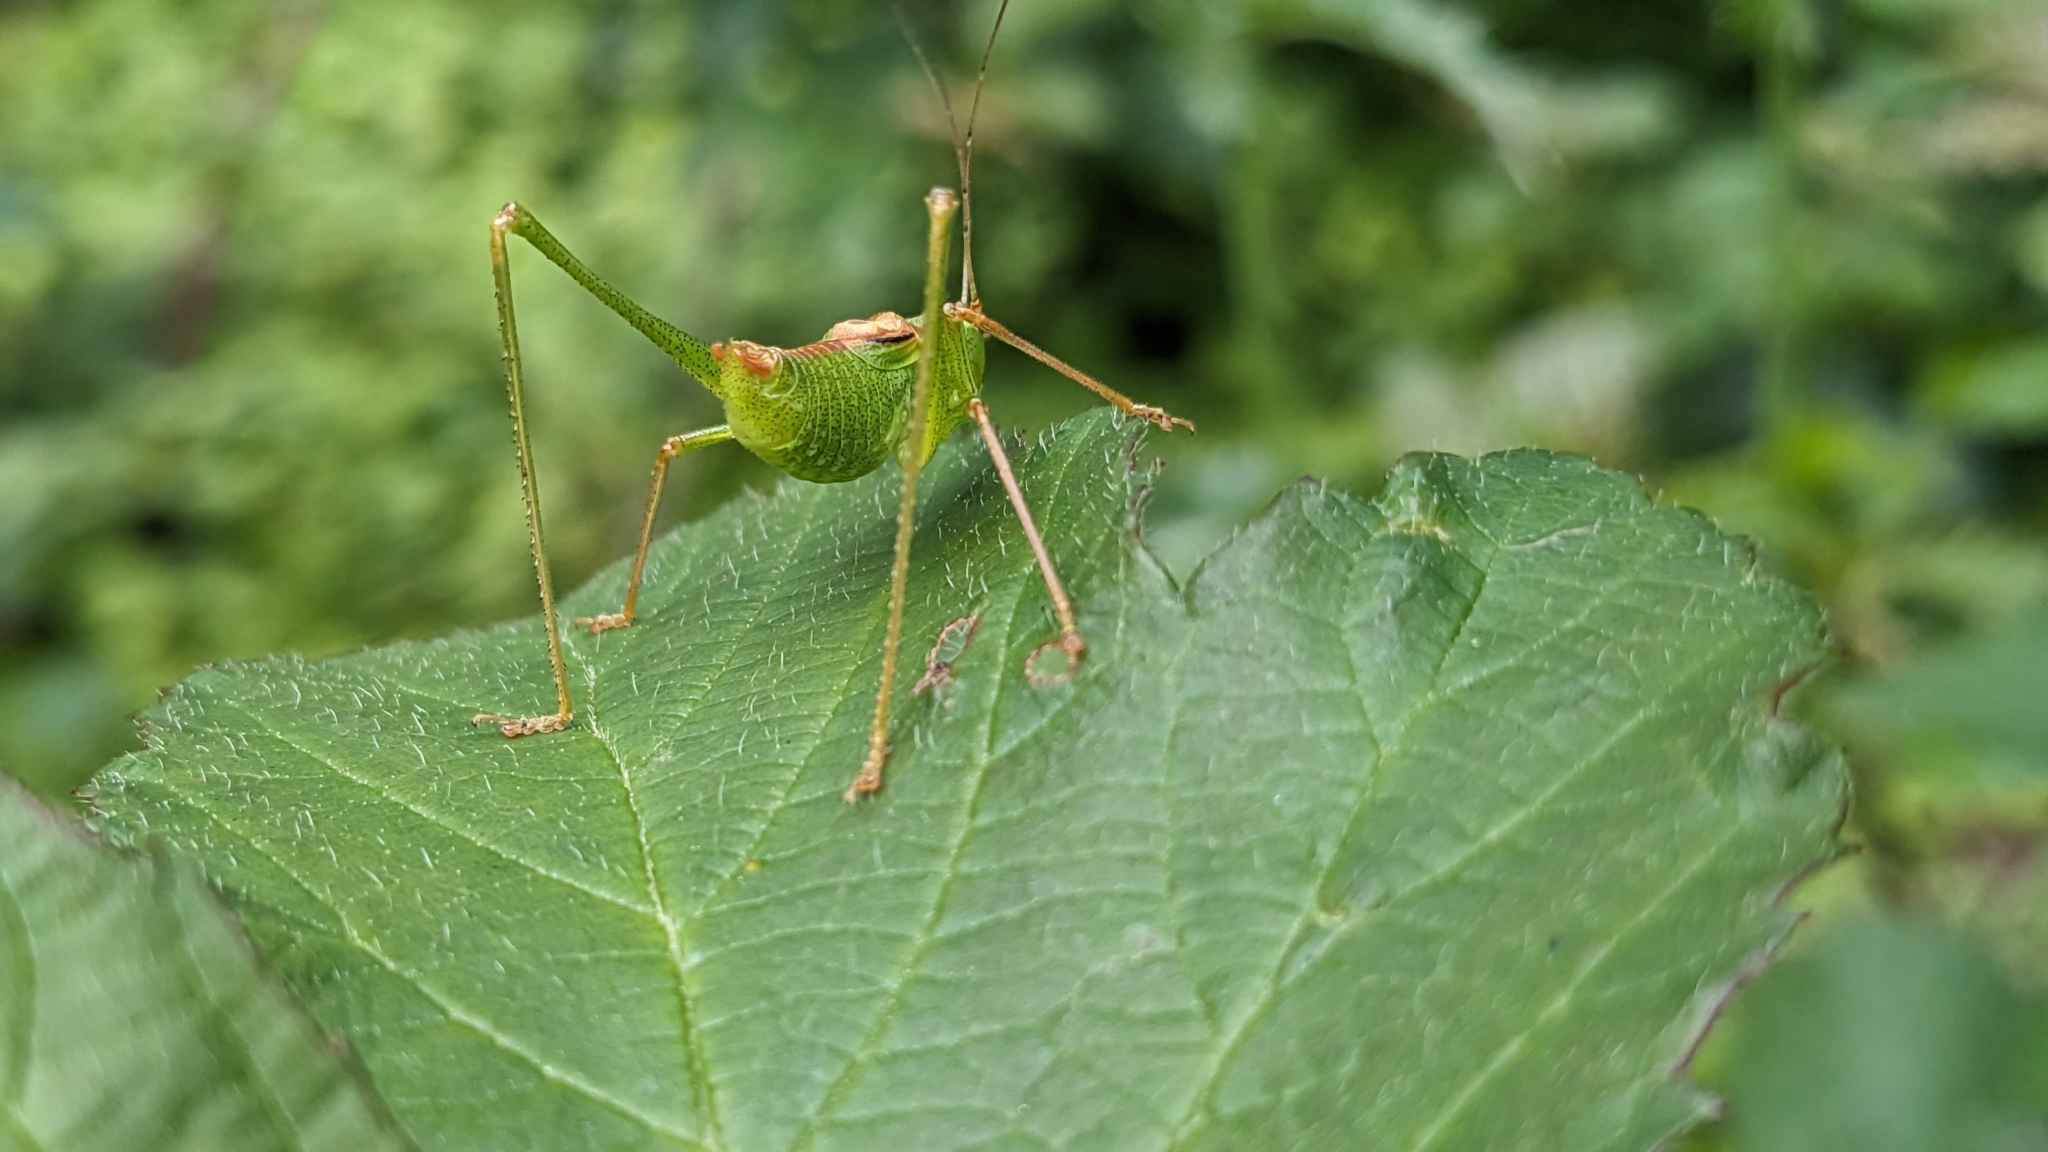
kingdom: Animalia
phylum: Arthropoda
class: Insecta
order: Orthoptera
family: Tettigoniidae
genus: Leptophyes
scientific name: Leptophyes punctatissima
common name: Speckled bush-cricket
